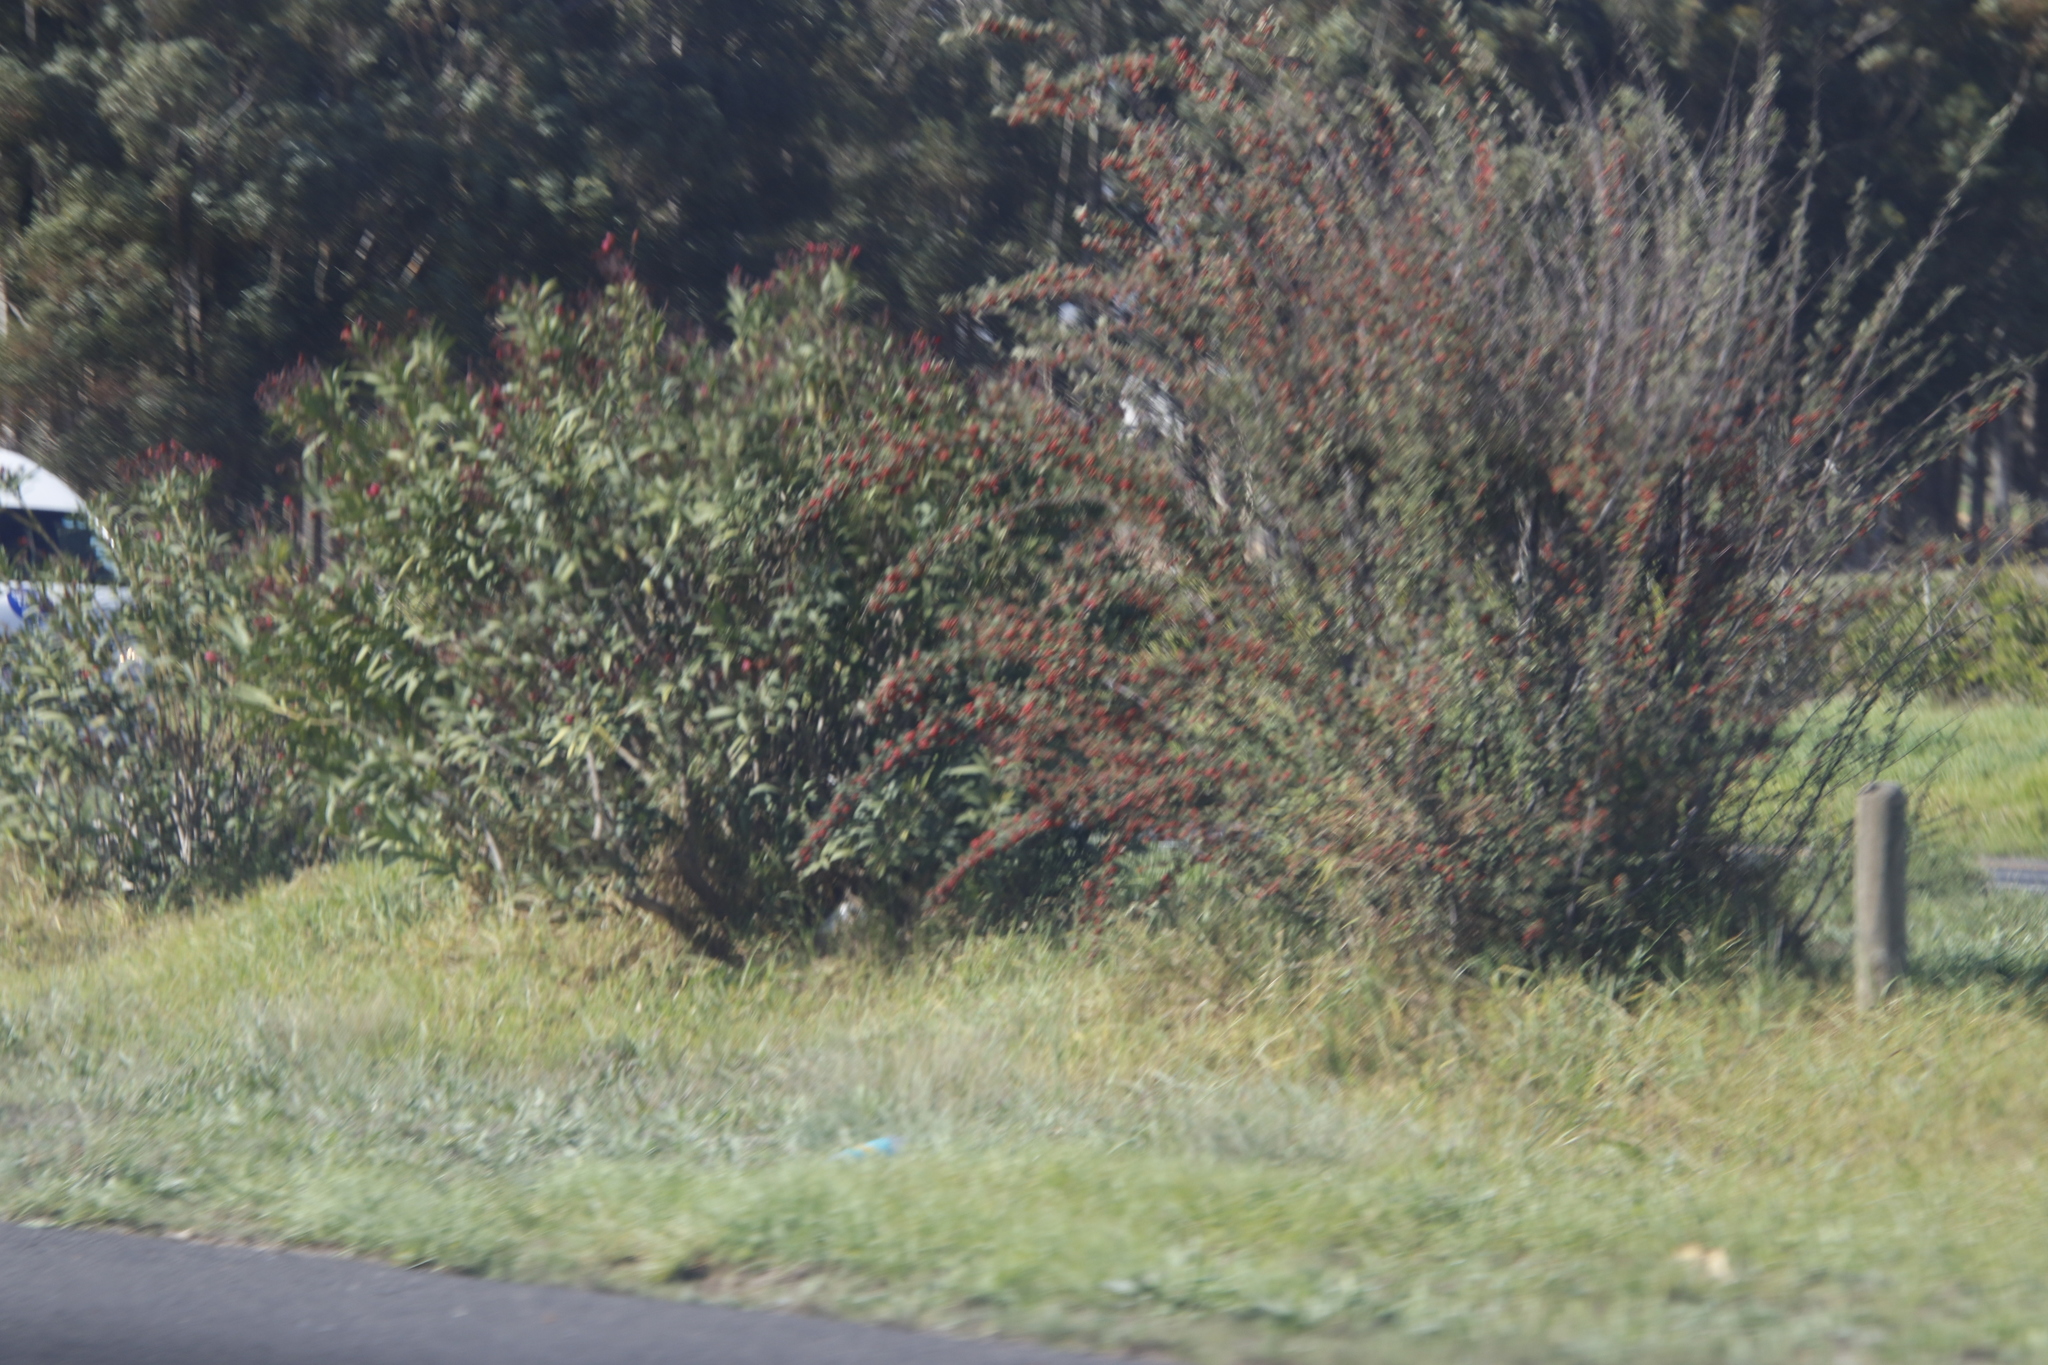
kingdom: Plantae
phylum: Tracheophyta
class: Magnoliopsida
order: Caryophyllales
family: Plumbaginaceae
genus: Plumbago
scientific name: Plumbago auriculata
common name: Cape leadwort
